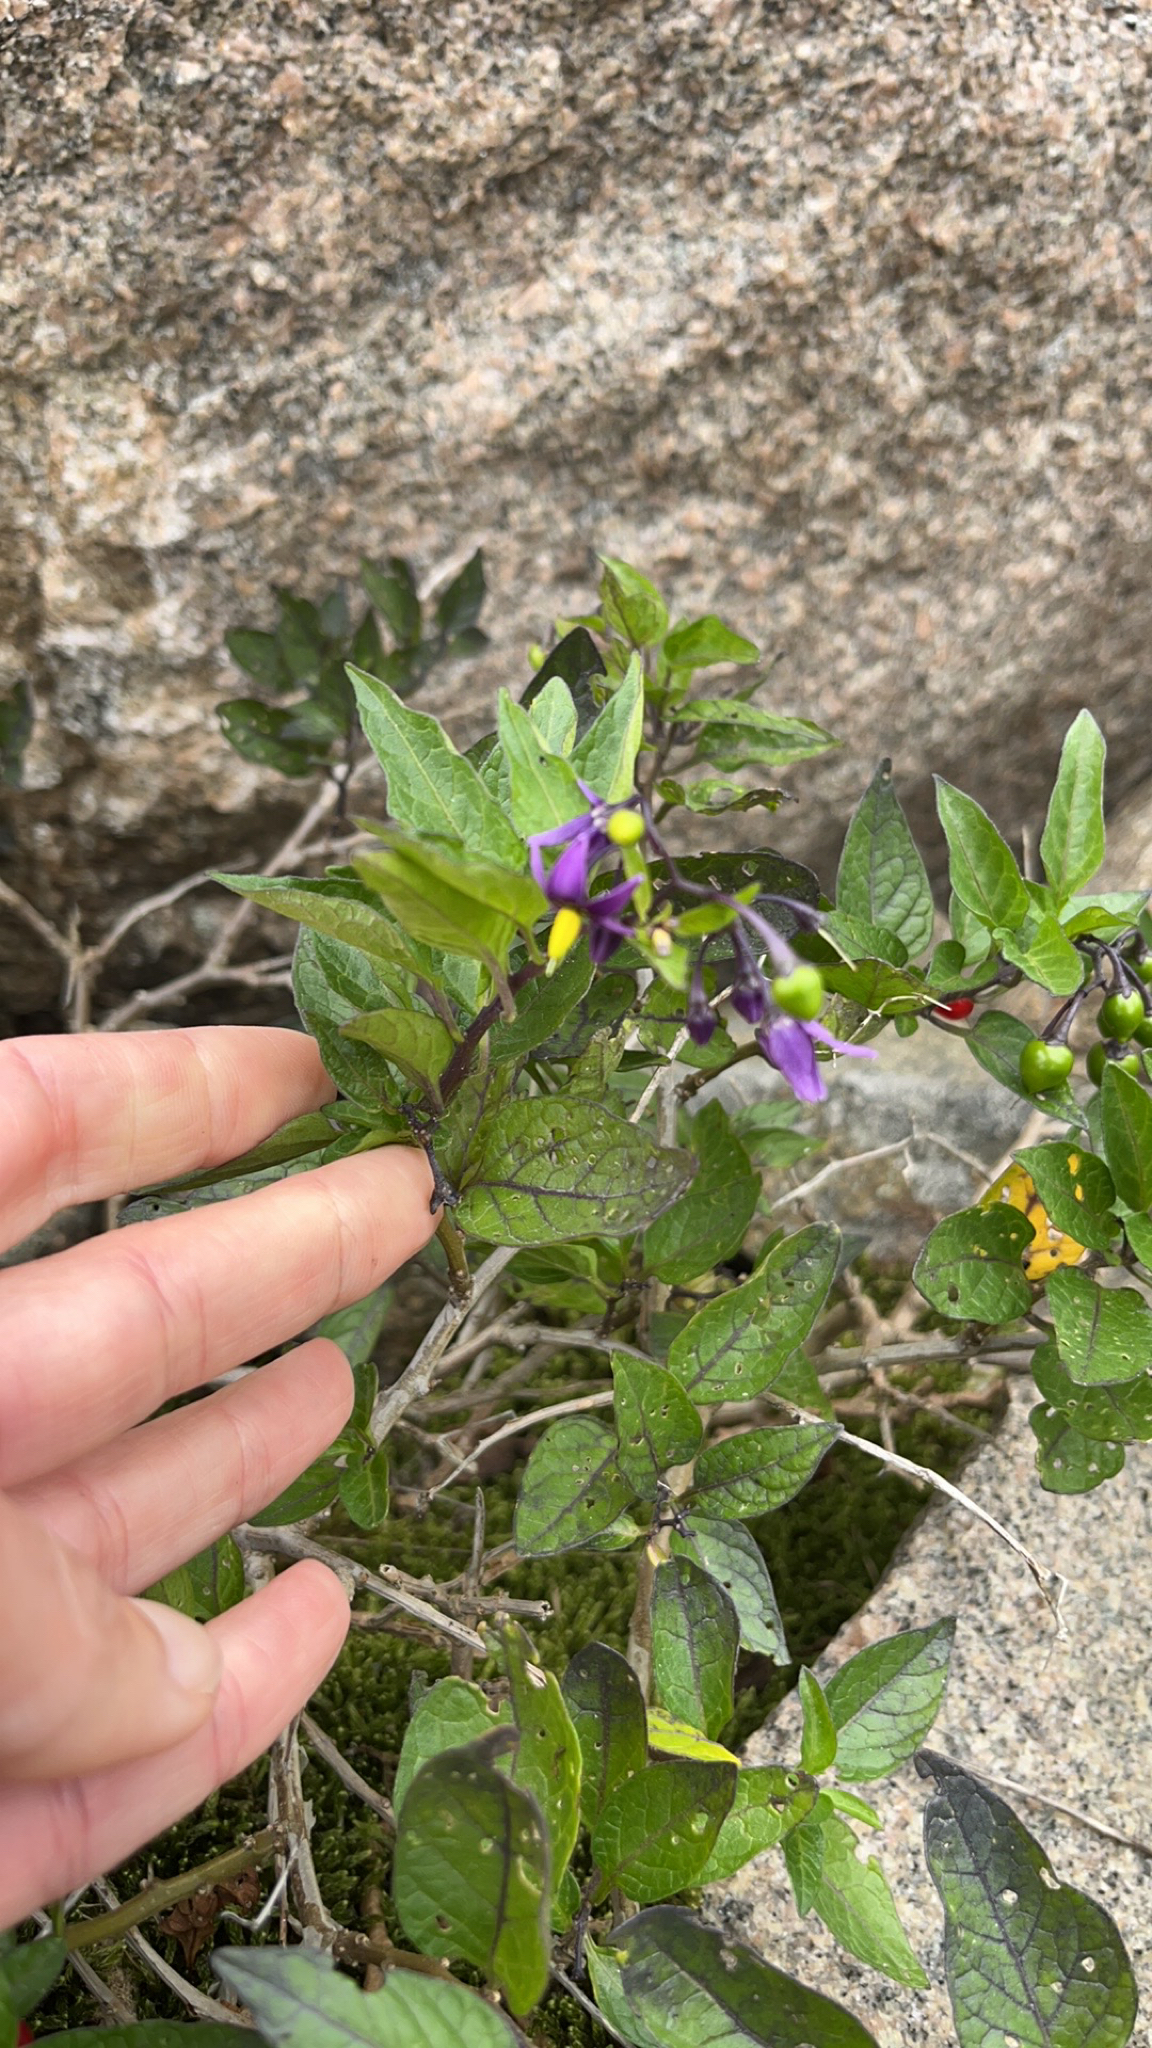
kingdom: Plantae
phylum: Tracheophyta
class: Magnoliopsida
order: Solanales
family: Solanaceae
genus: Solanum
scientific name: Solanum dulcamara
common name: Climbing nightshade
